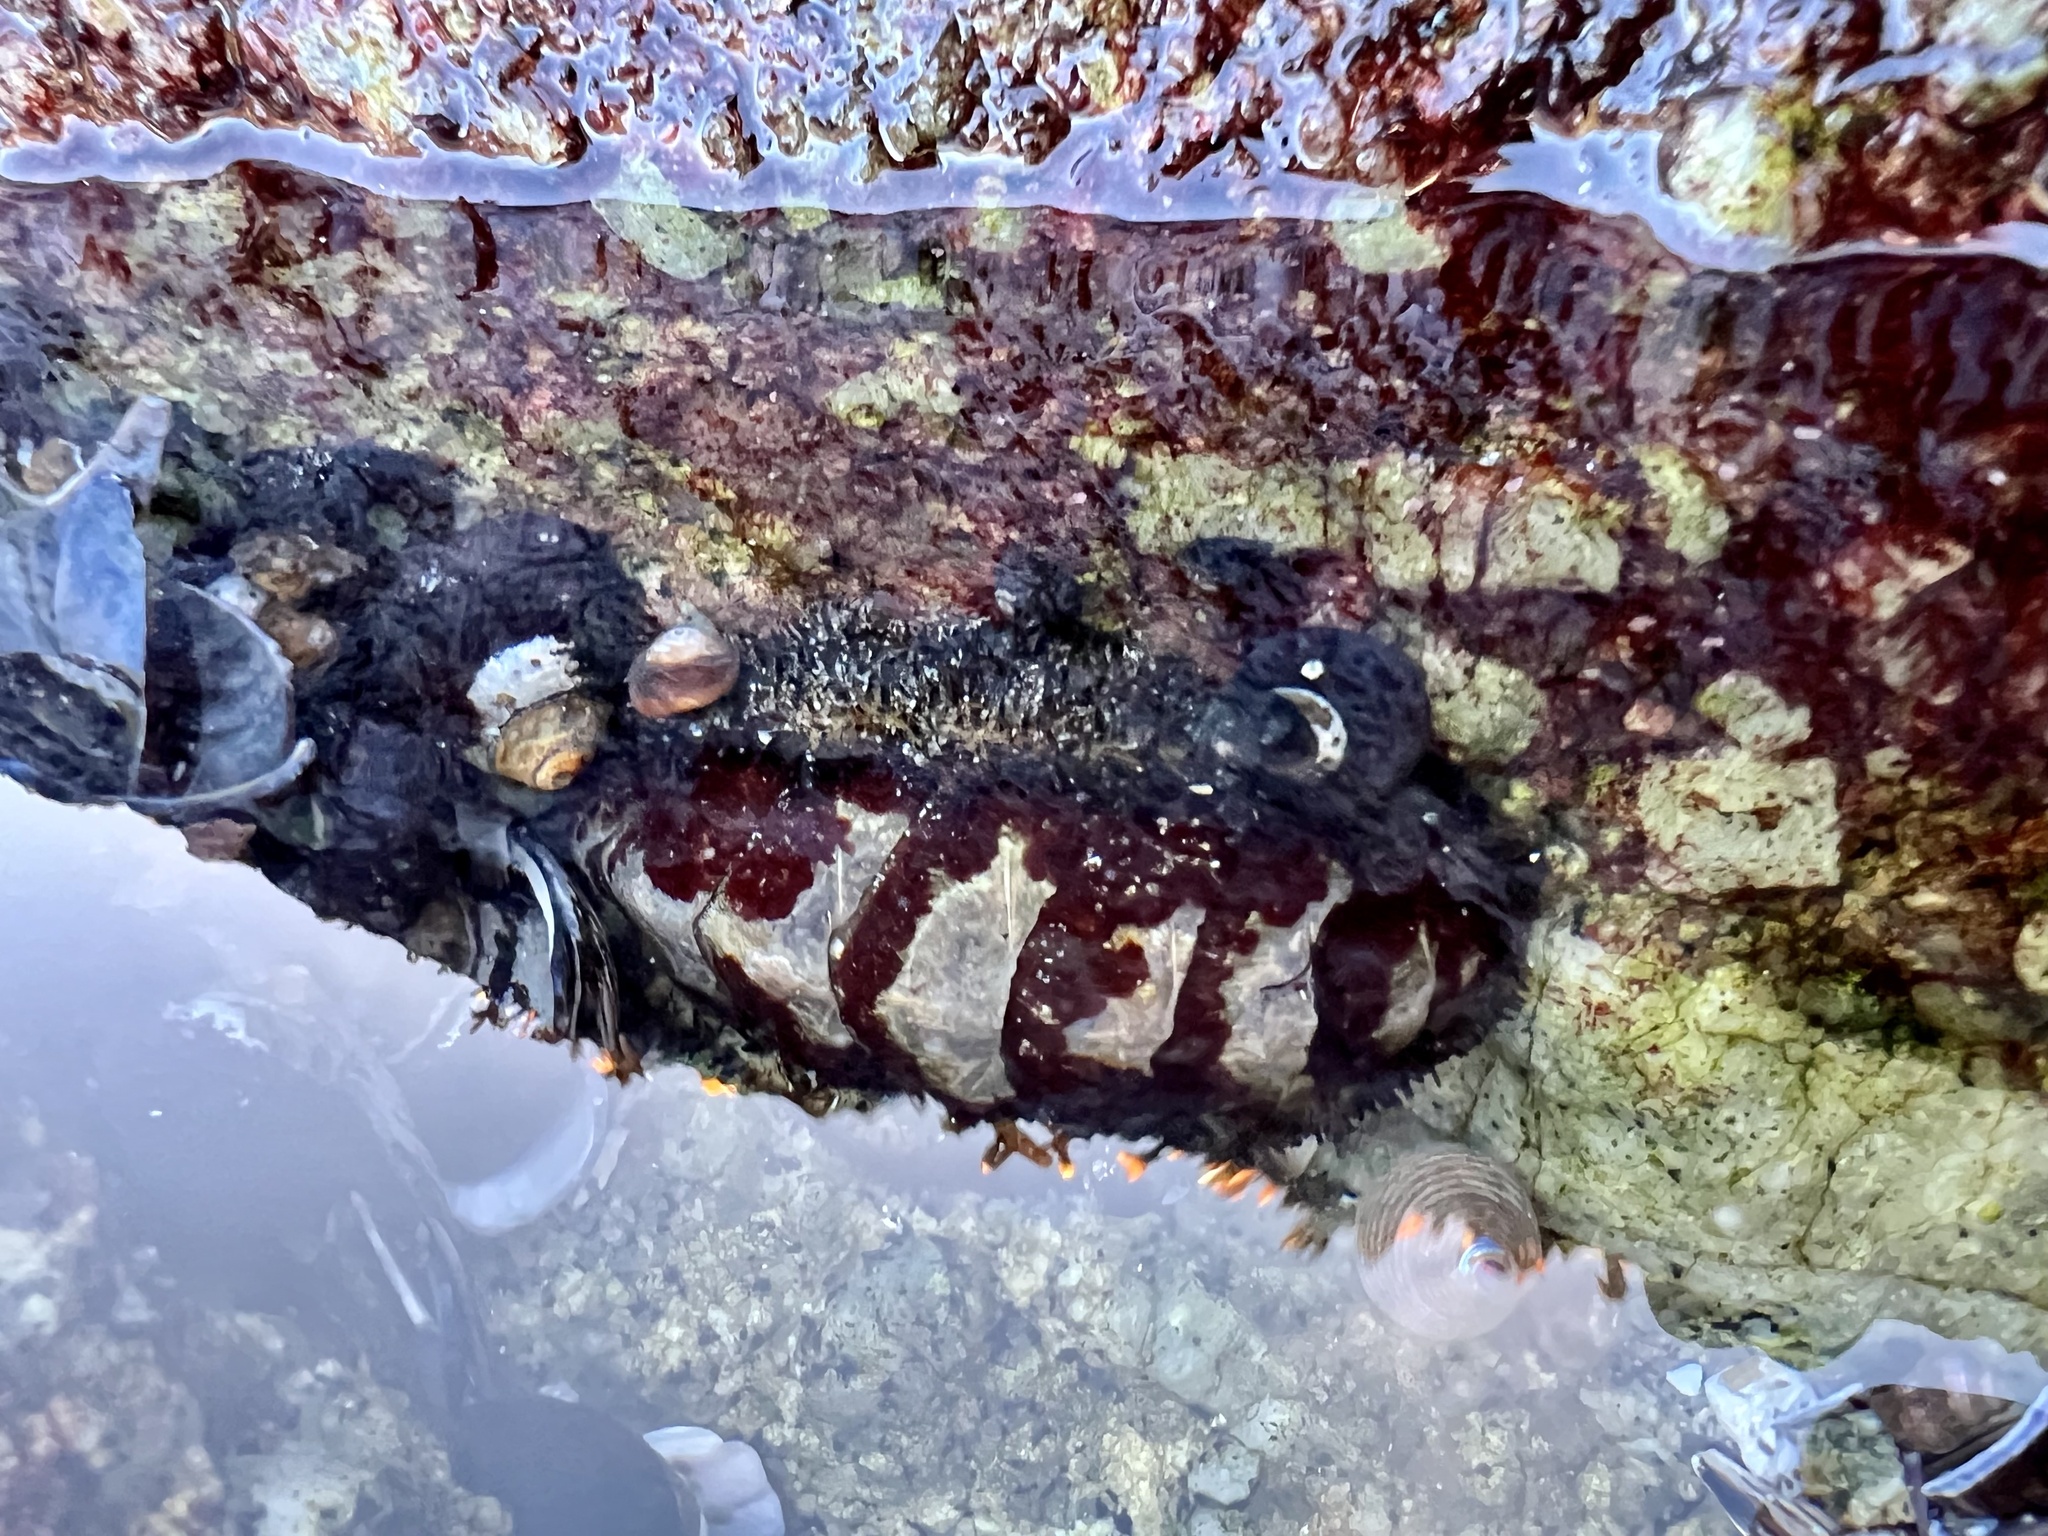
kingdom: Animalia
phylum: Mollusca
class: Polyplacophora
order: Chitonida
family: Mopaliidae
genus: Mopalia
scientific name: Mopalia muscosa
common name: Mossy chiton
